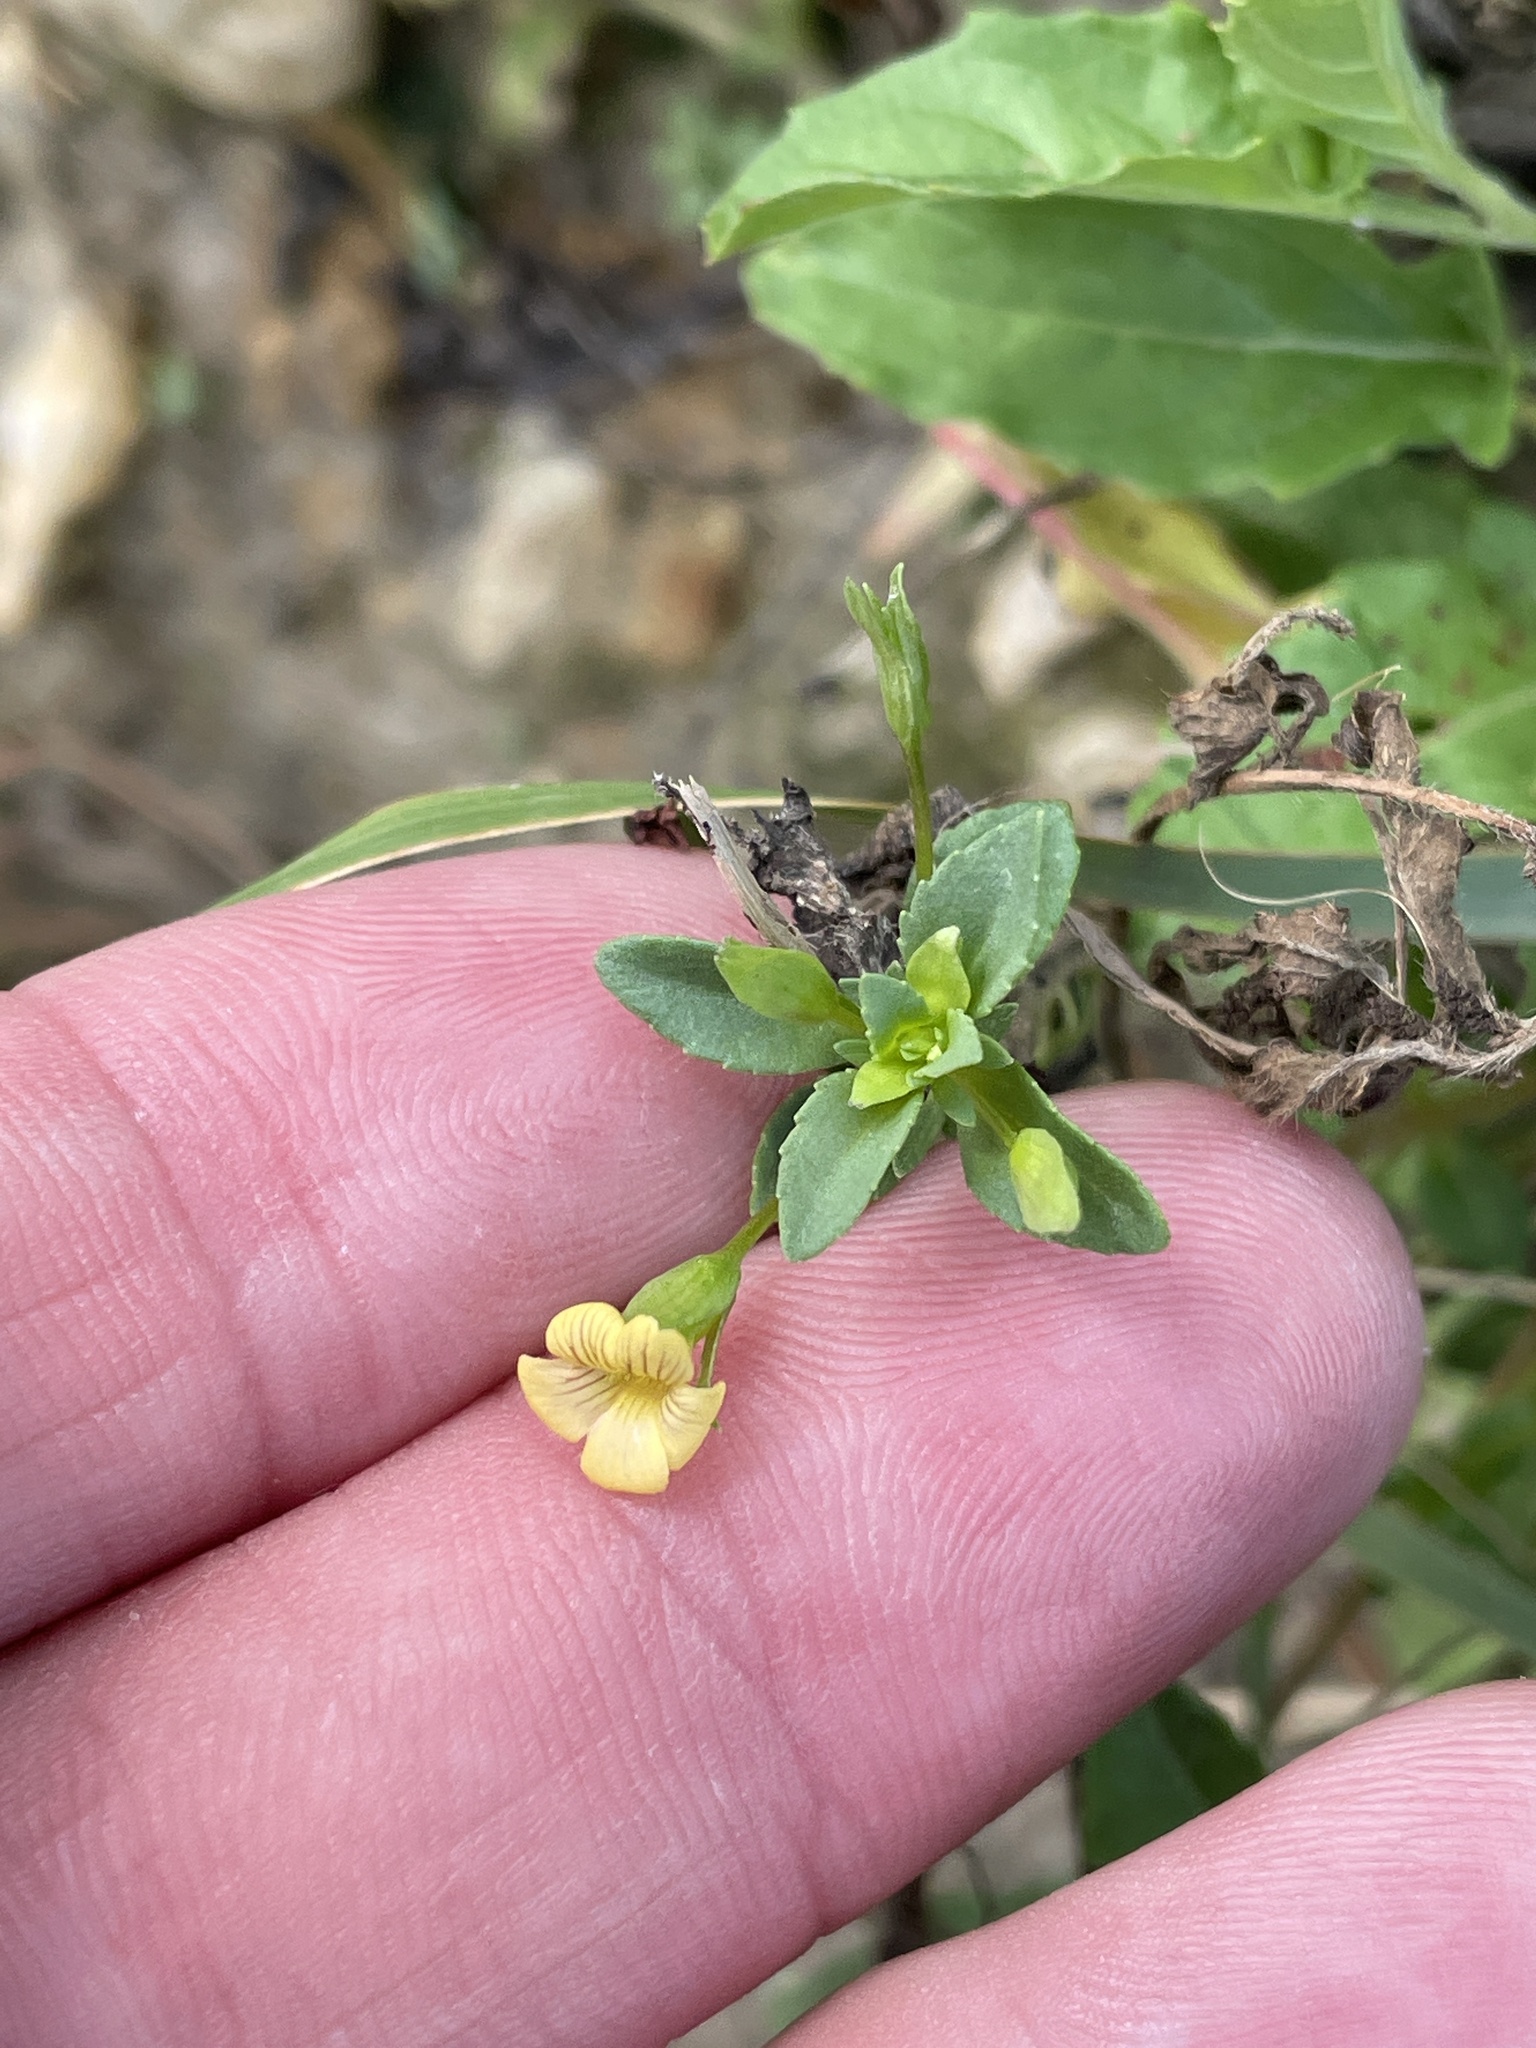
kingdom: Plantae
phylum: Tracheophyta
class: Magnoliopsida
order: Lamiales
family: Plantaginaceae
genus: Mecardonia
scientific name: Mecardonia procumbens
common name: Baby jump-up
